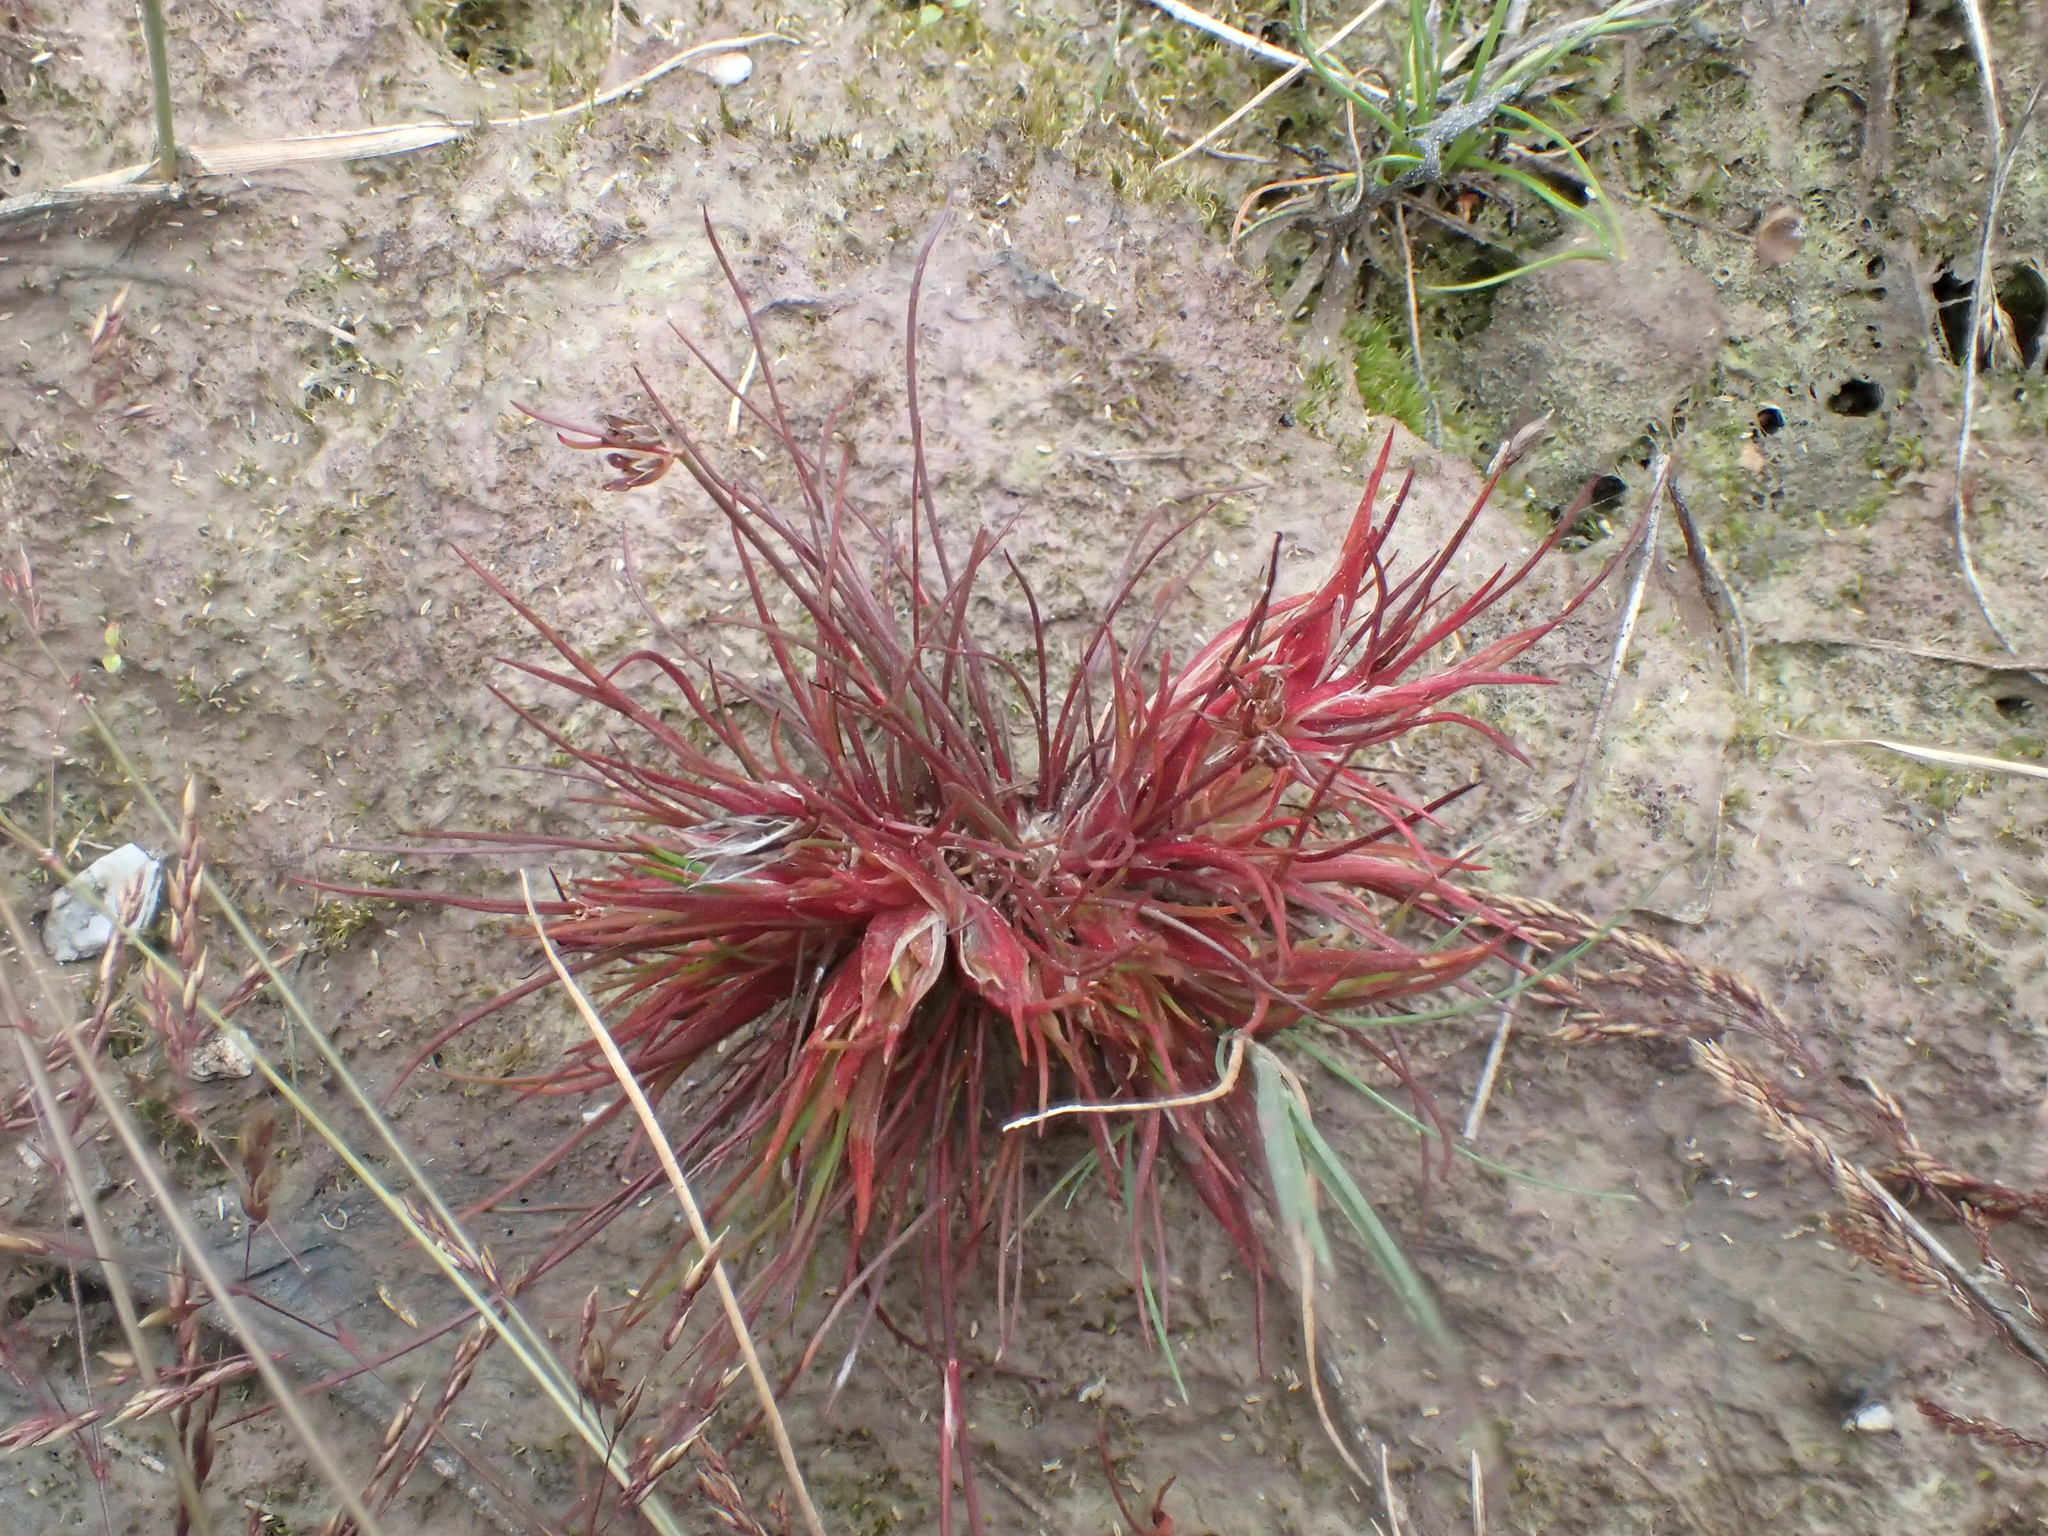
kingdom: Animalia
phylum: Arthropoda
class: Insecta
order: Hemiptera
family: Liviidae
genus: Livia
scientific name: Livia junci
